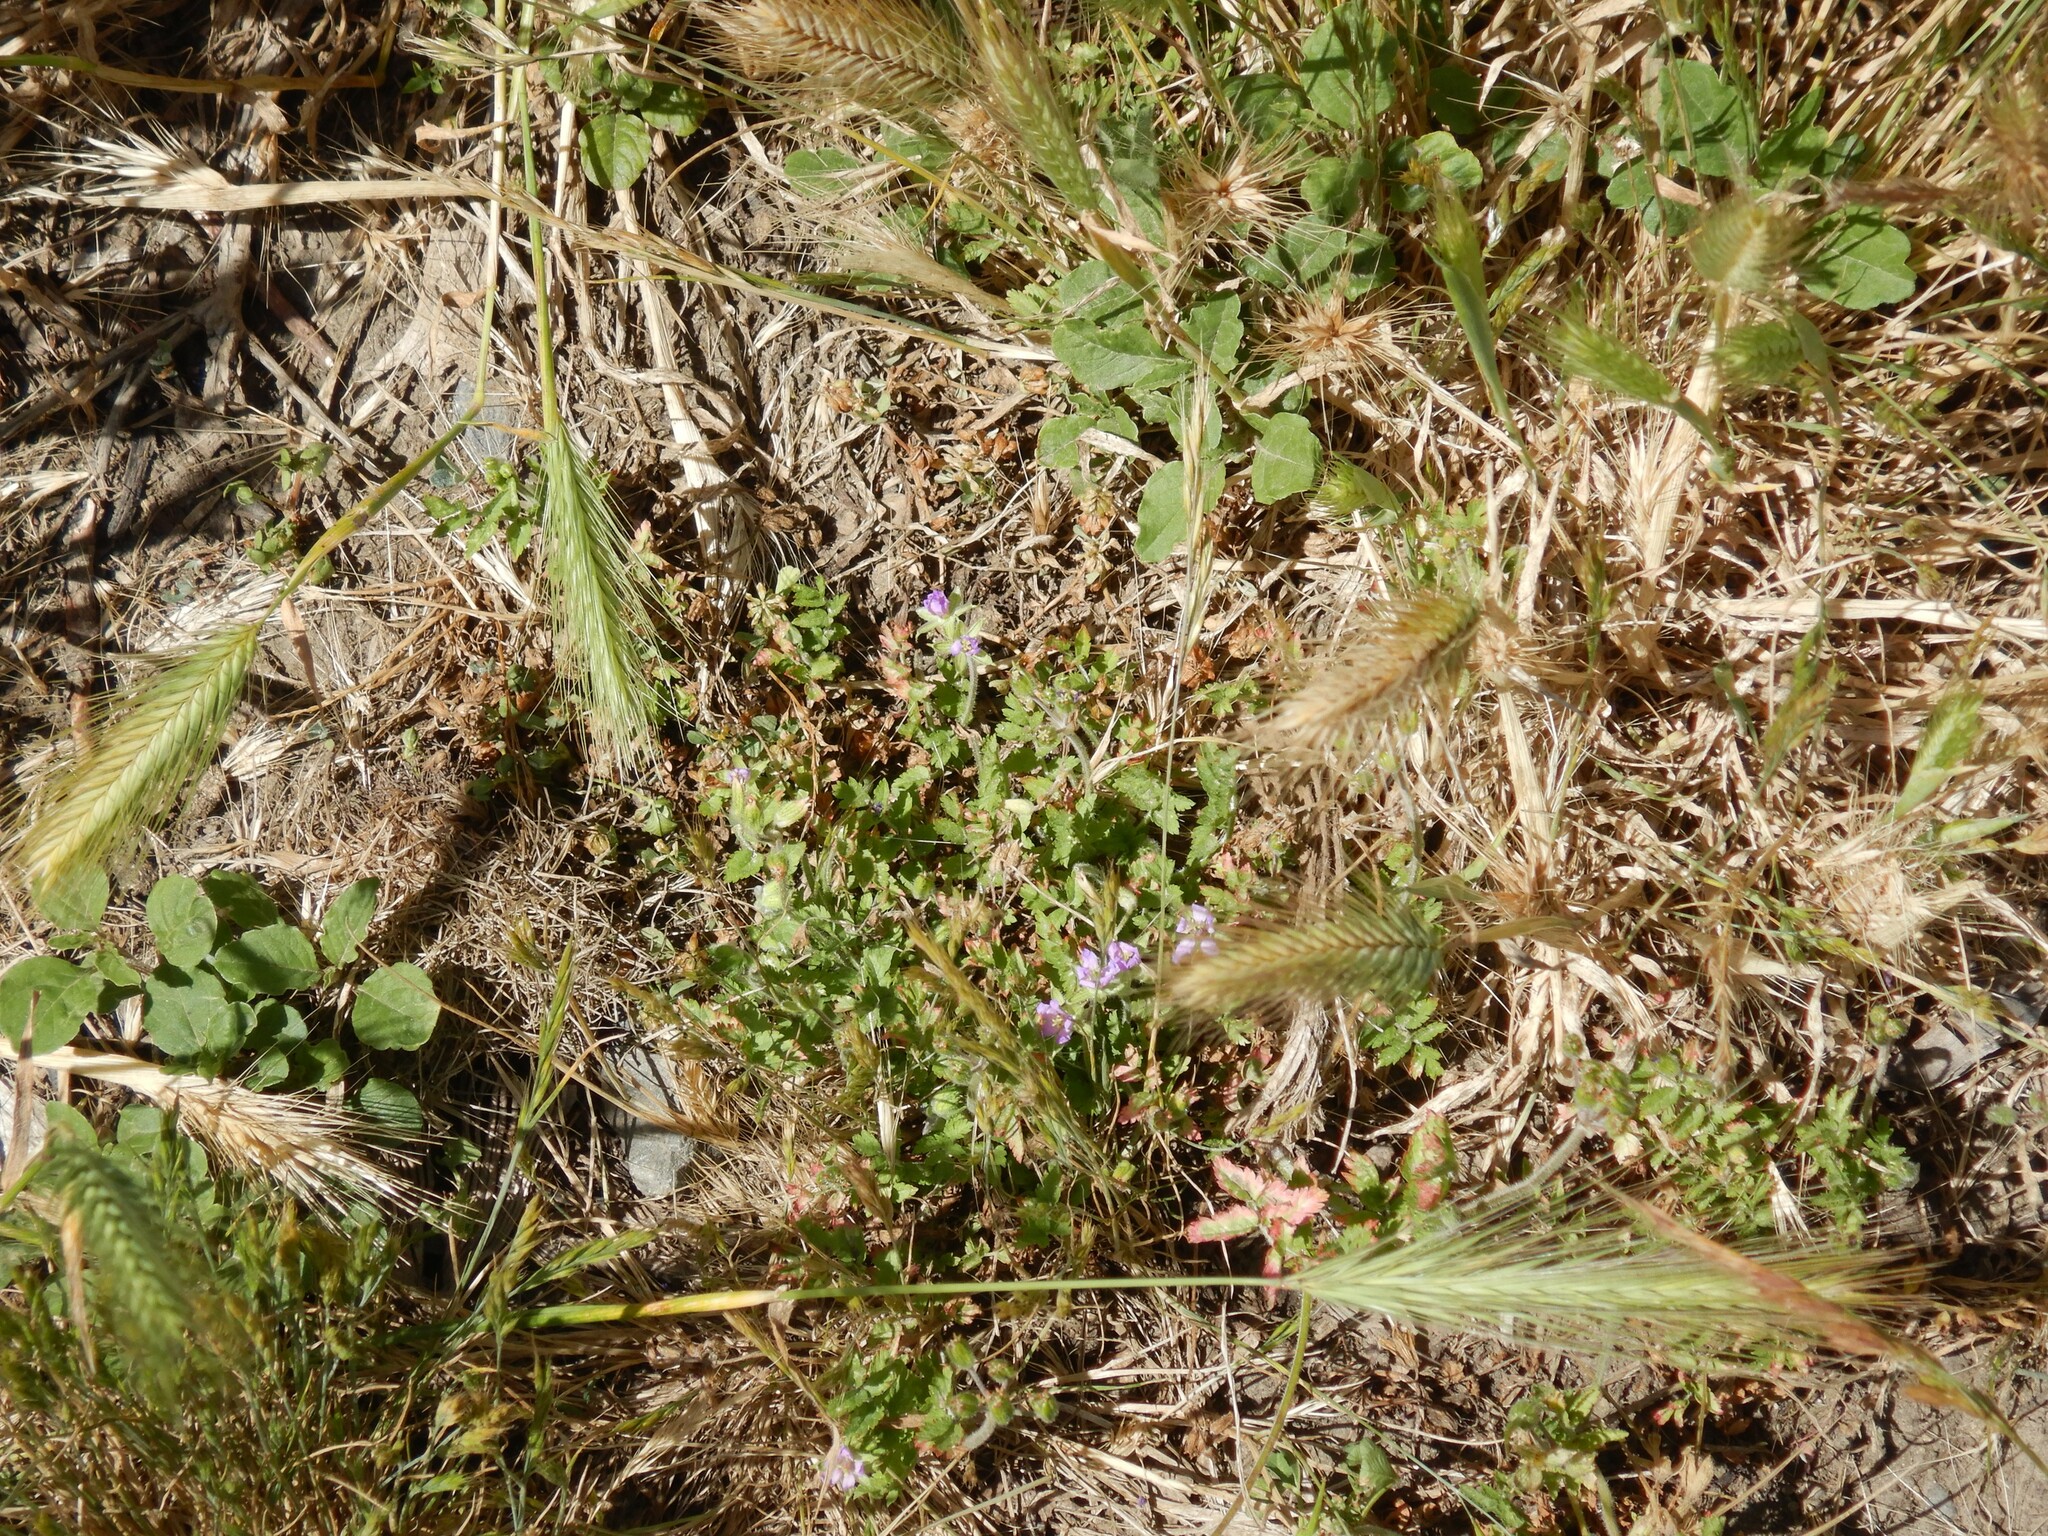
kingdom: Plantae
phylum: Tracheophyta
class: Magnoliopsida
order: Geraniales
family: Geraniaceae
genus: Erodium
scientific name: Erodium cicutarium
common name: Common stork's-bill
